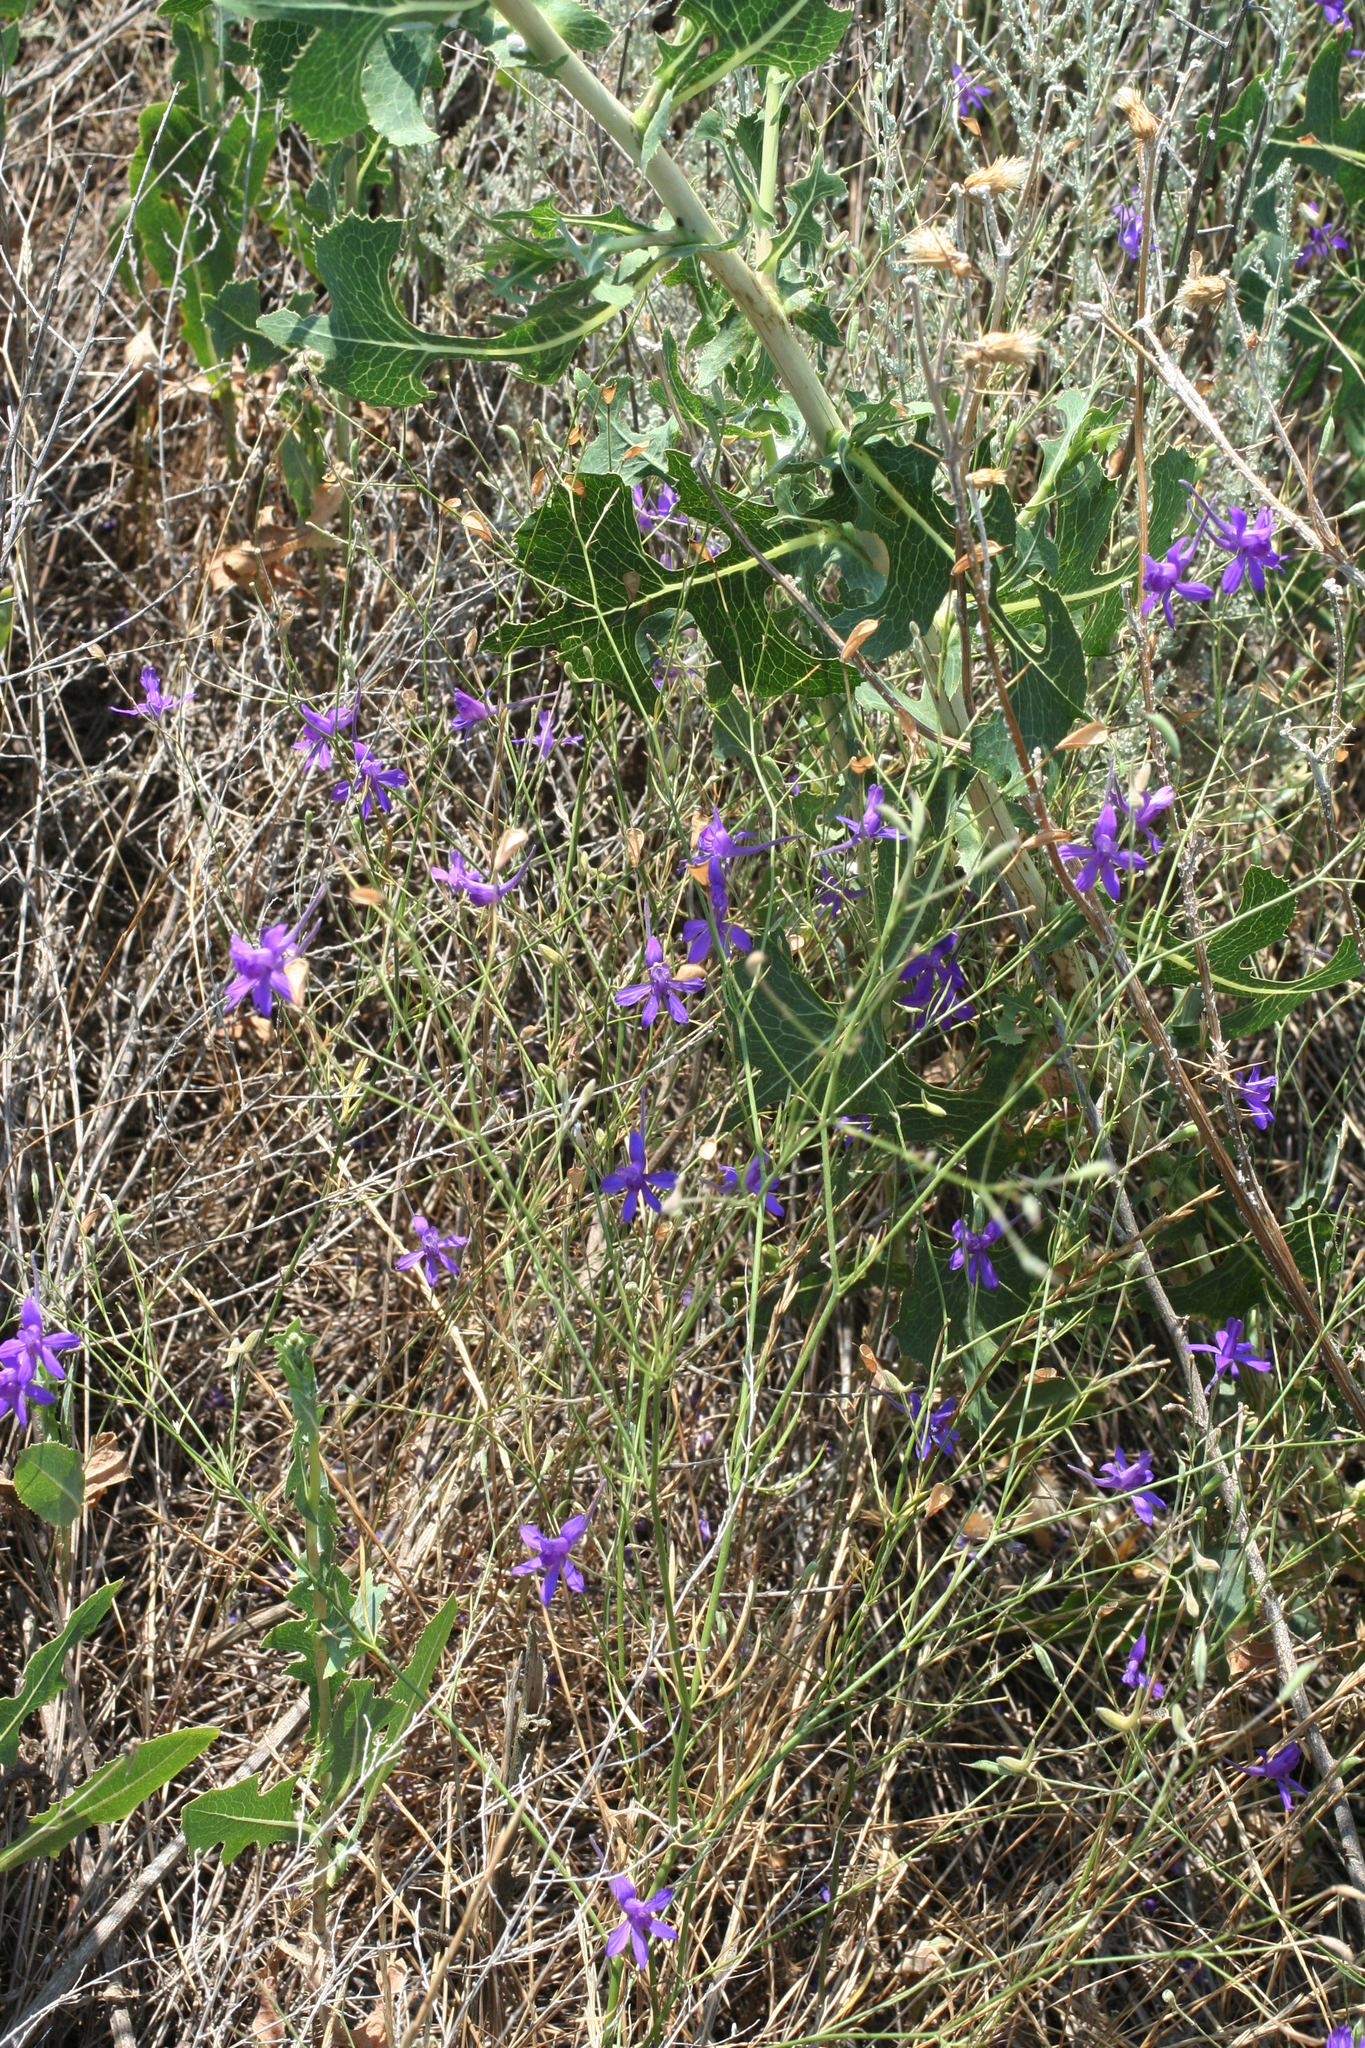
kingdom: Plantae
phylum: Tracheophyta
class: Magnoliopsida
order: Ranunculales
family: Ranunculaceae
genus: Delphinium
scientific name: Delphinium consolida
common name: Branching larkspur
